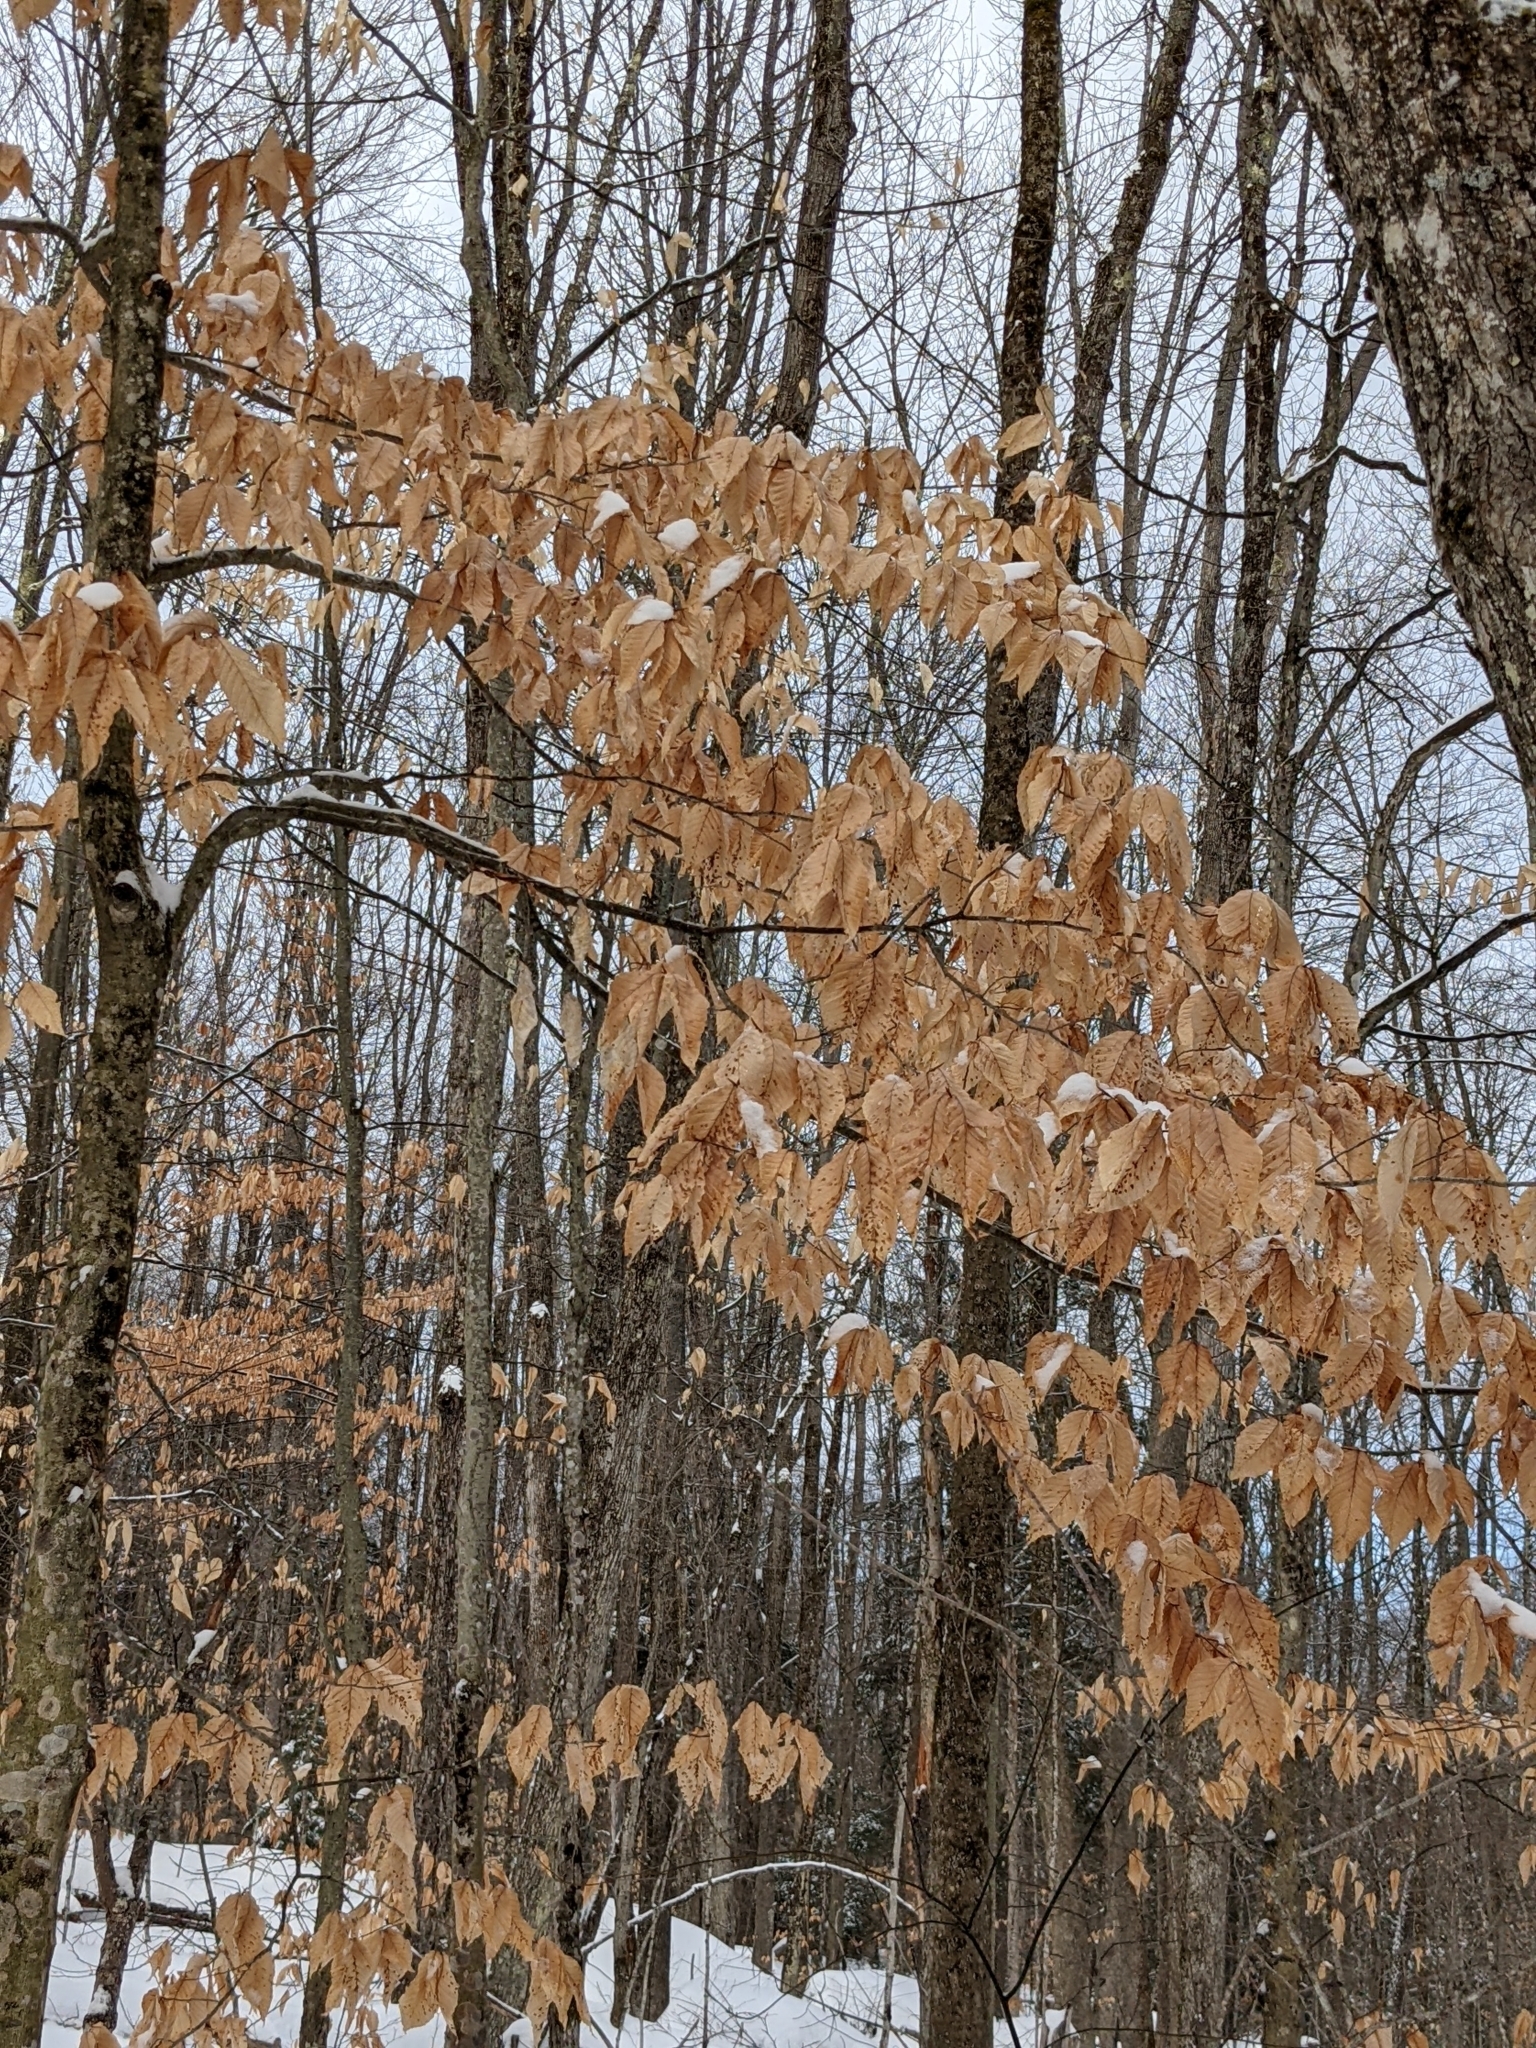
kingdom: Plantae
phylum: Tracheophyta
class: Magnoliopsida
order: Fagales
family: Fagaceae
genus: Fagus
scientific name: Fagus grandifolia
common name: American beech
